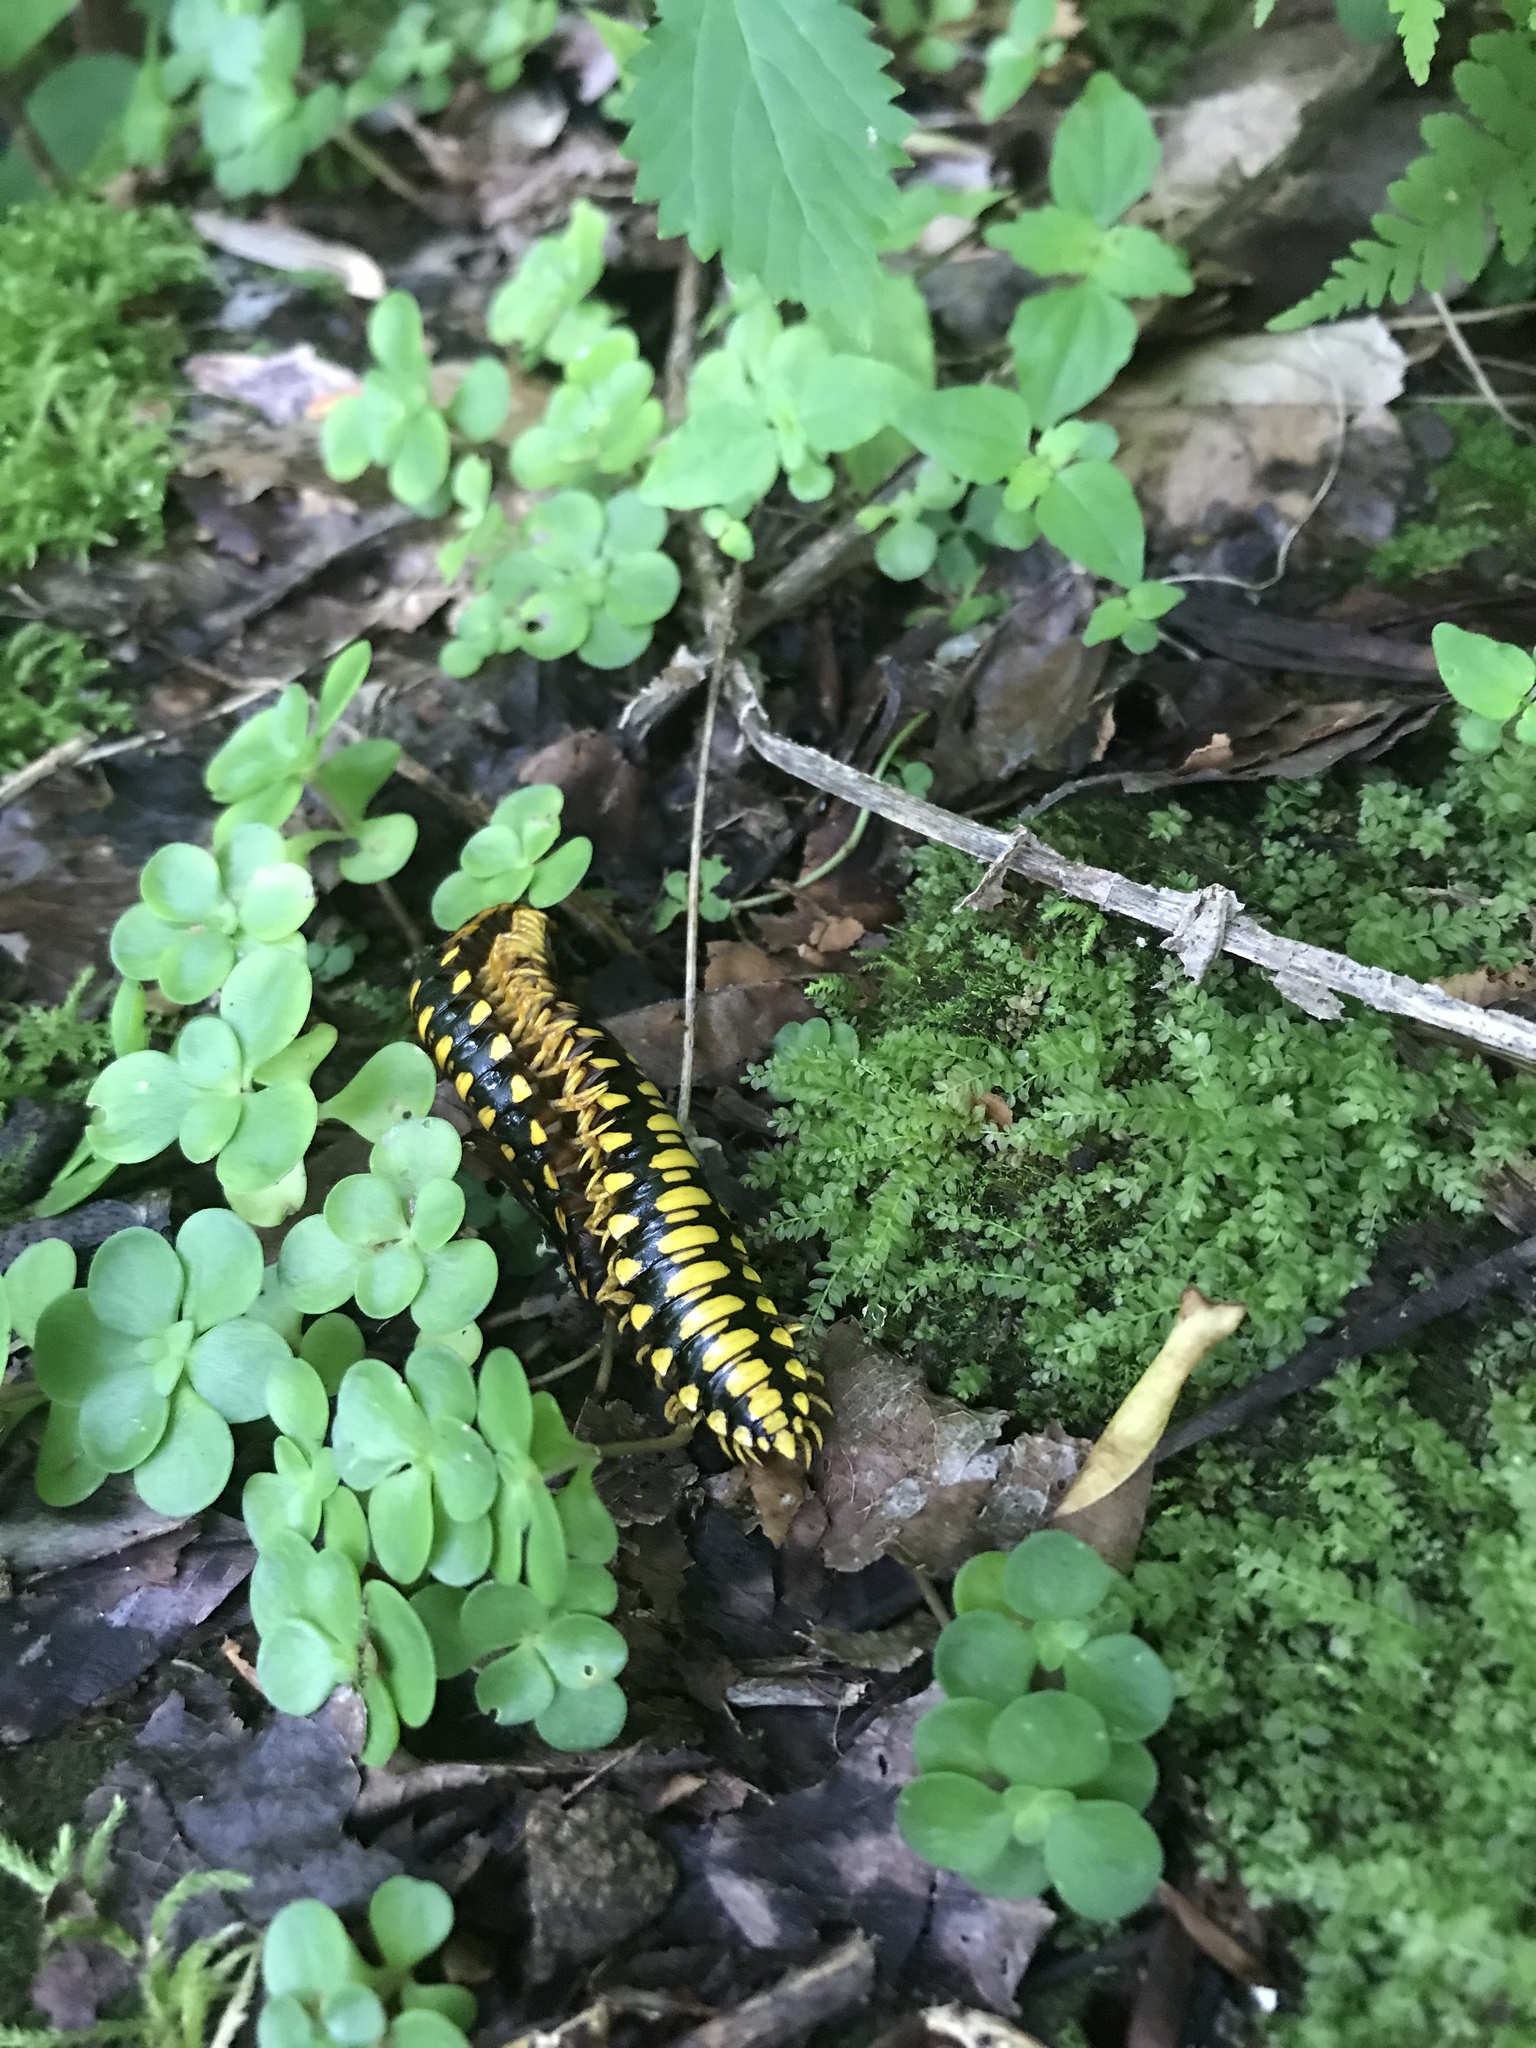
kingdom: Animalia
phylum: Arthropoda
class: Diplopoda
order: Polydesmida
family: Xystodesmidae
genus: Apheloria
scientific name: Apheloria polychroma
